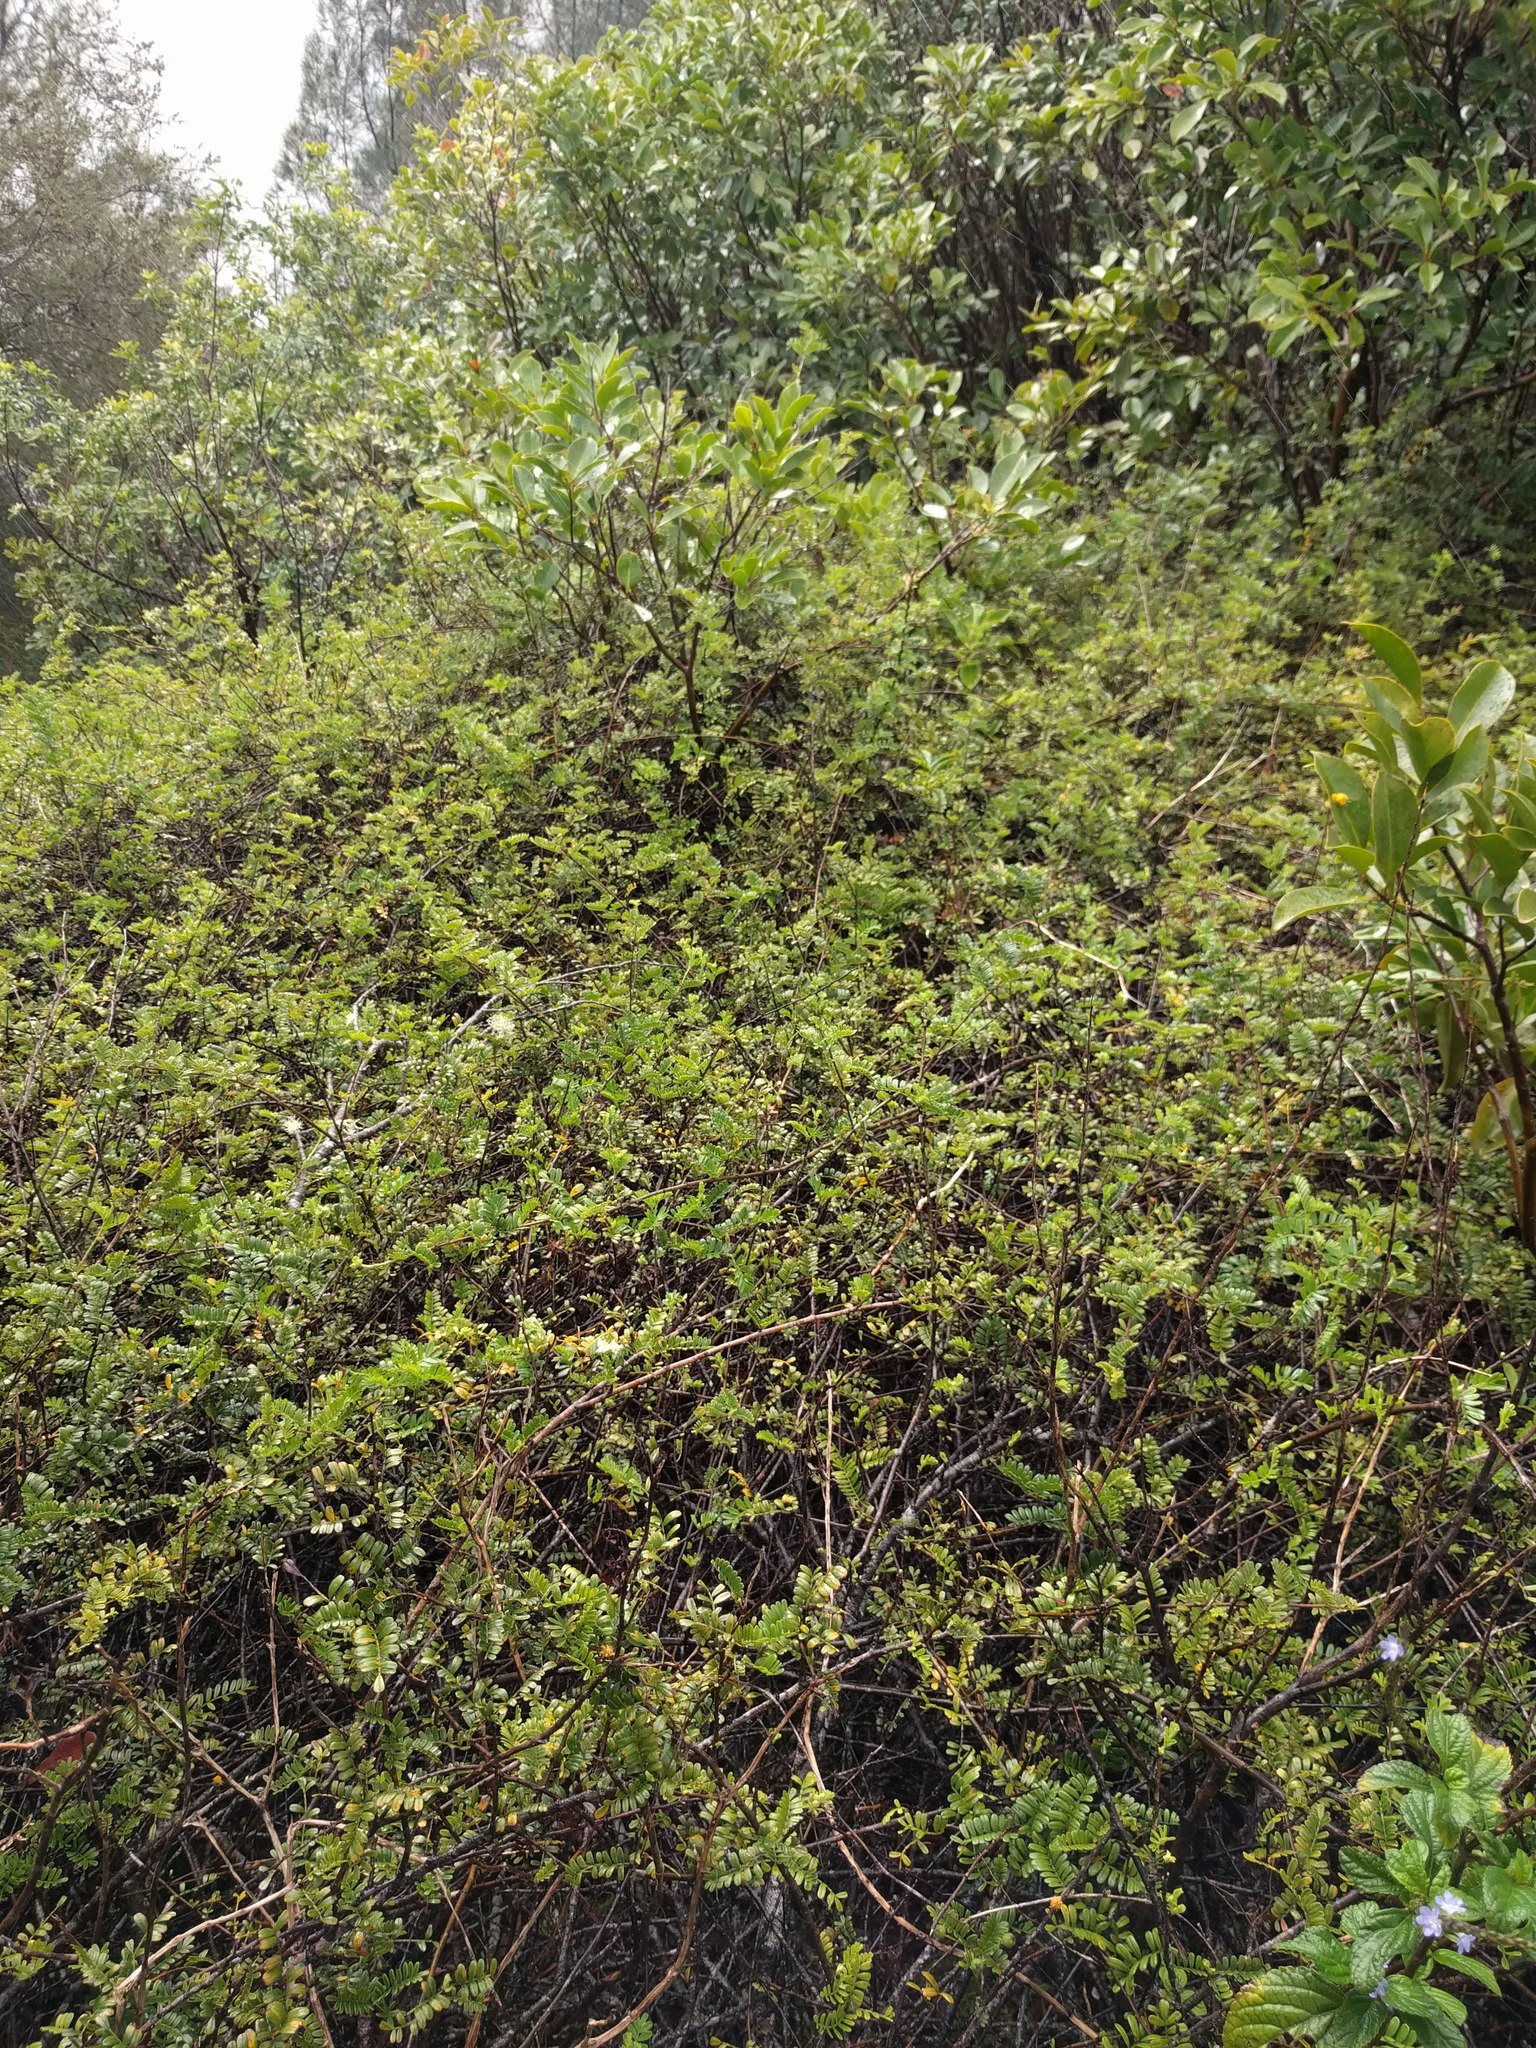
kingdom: Plantae
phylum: Tracheophyta
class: Magnoliopsida
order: Rosales
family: Rosaceae
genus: Osteomeles
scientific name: Osteomeles anthyllidifolia
